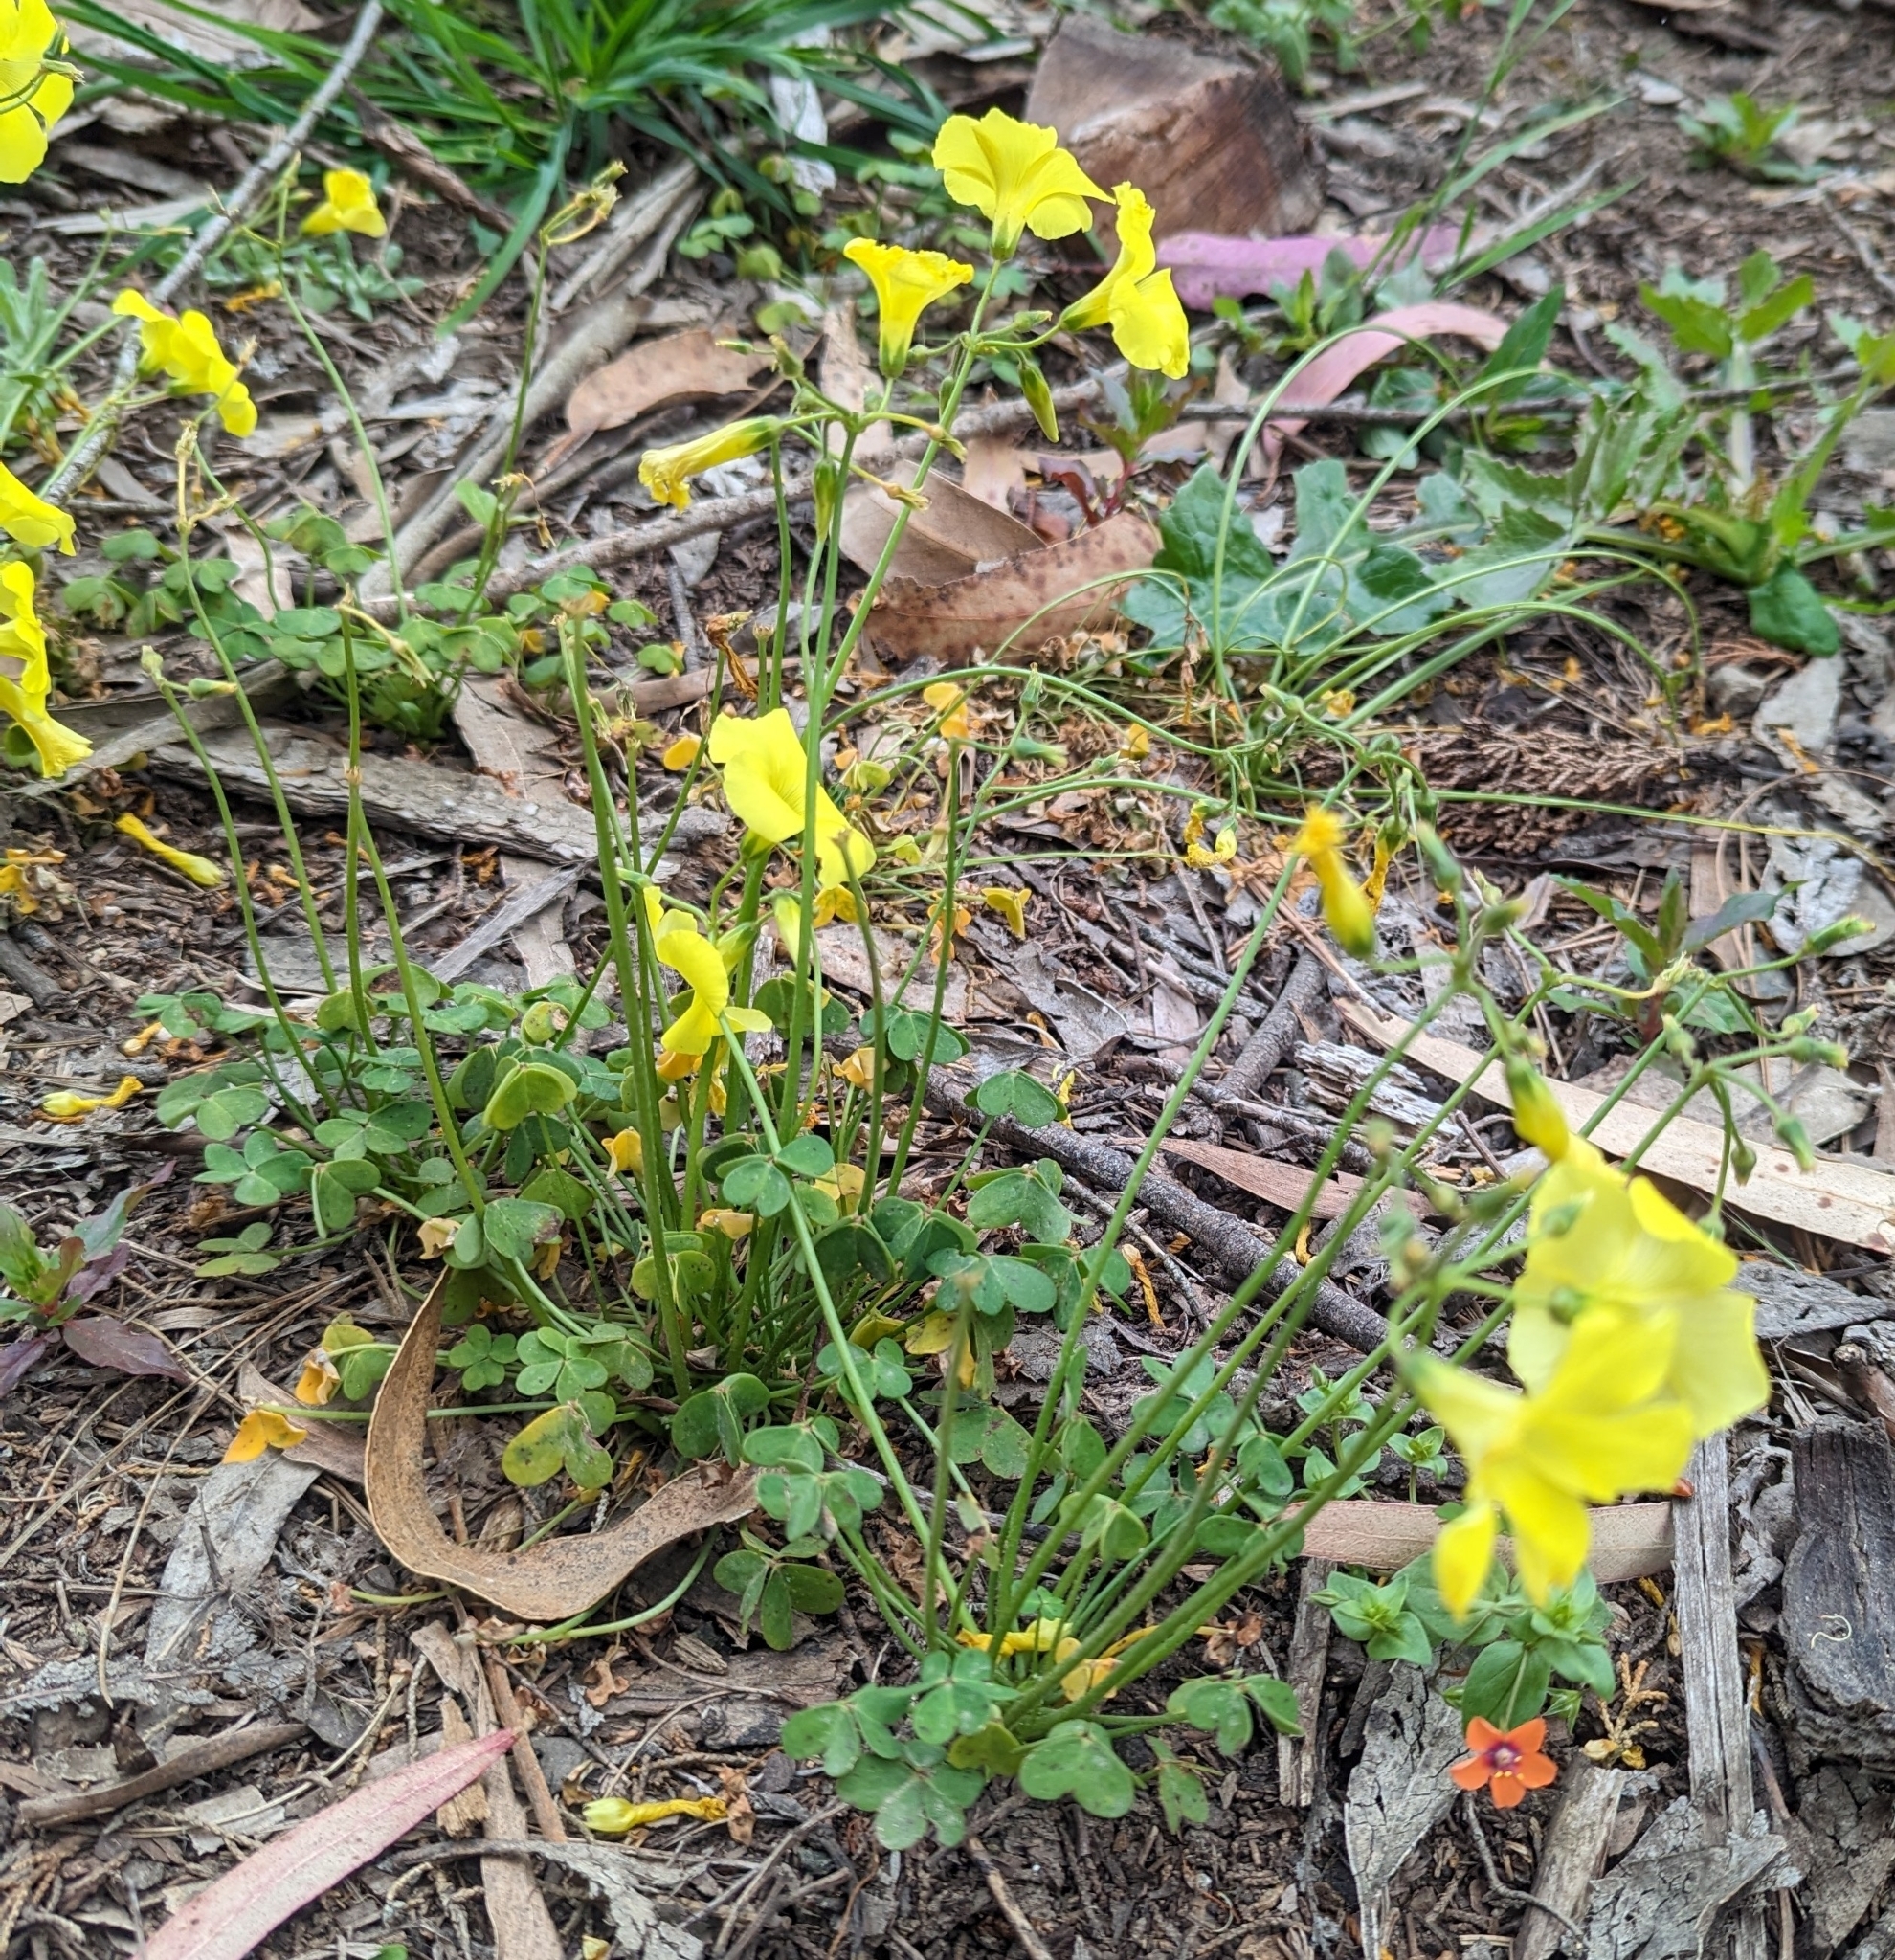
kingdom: Plantae
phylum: Tracheophyta
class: Magnoliopsida
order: Oxalidales
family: Oxalidaceae
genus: Oxalis
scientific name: Oxalis pes-caprae
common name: Bermuda-buttercup
